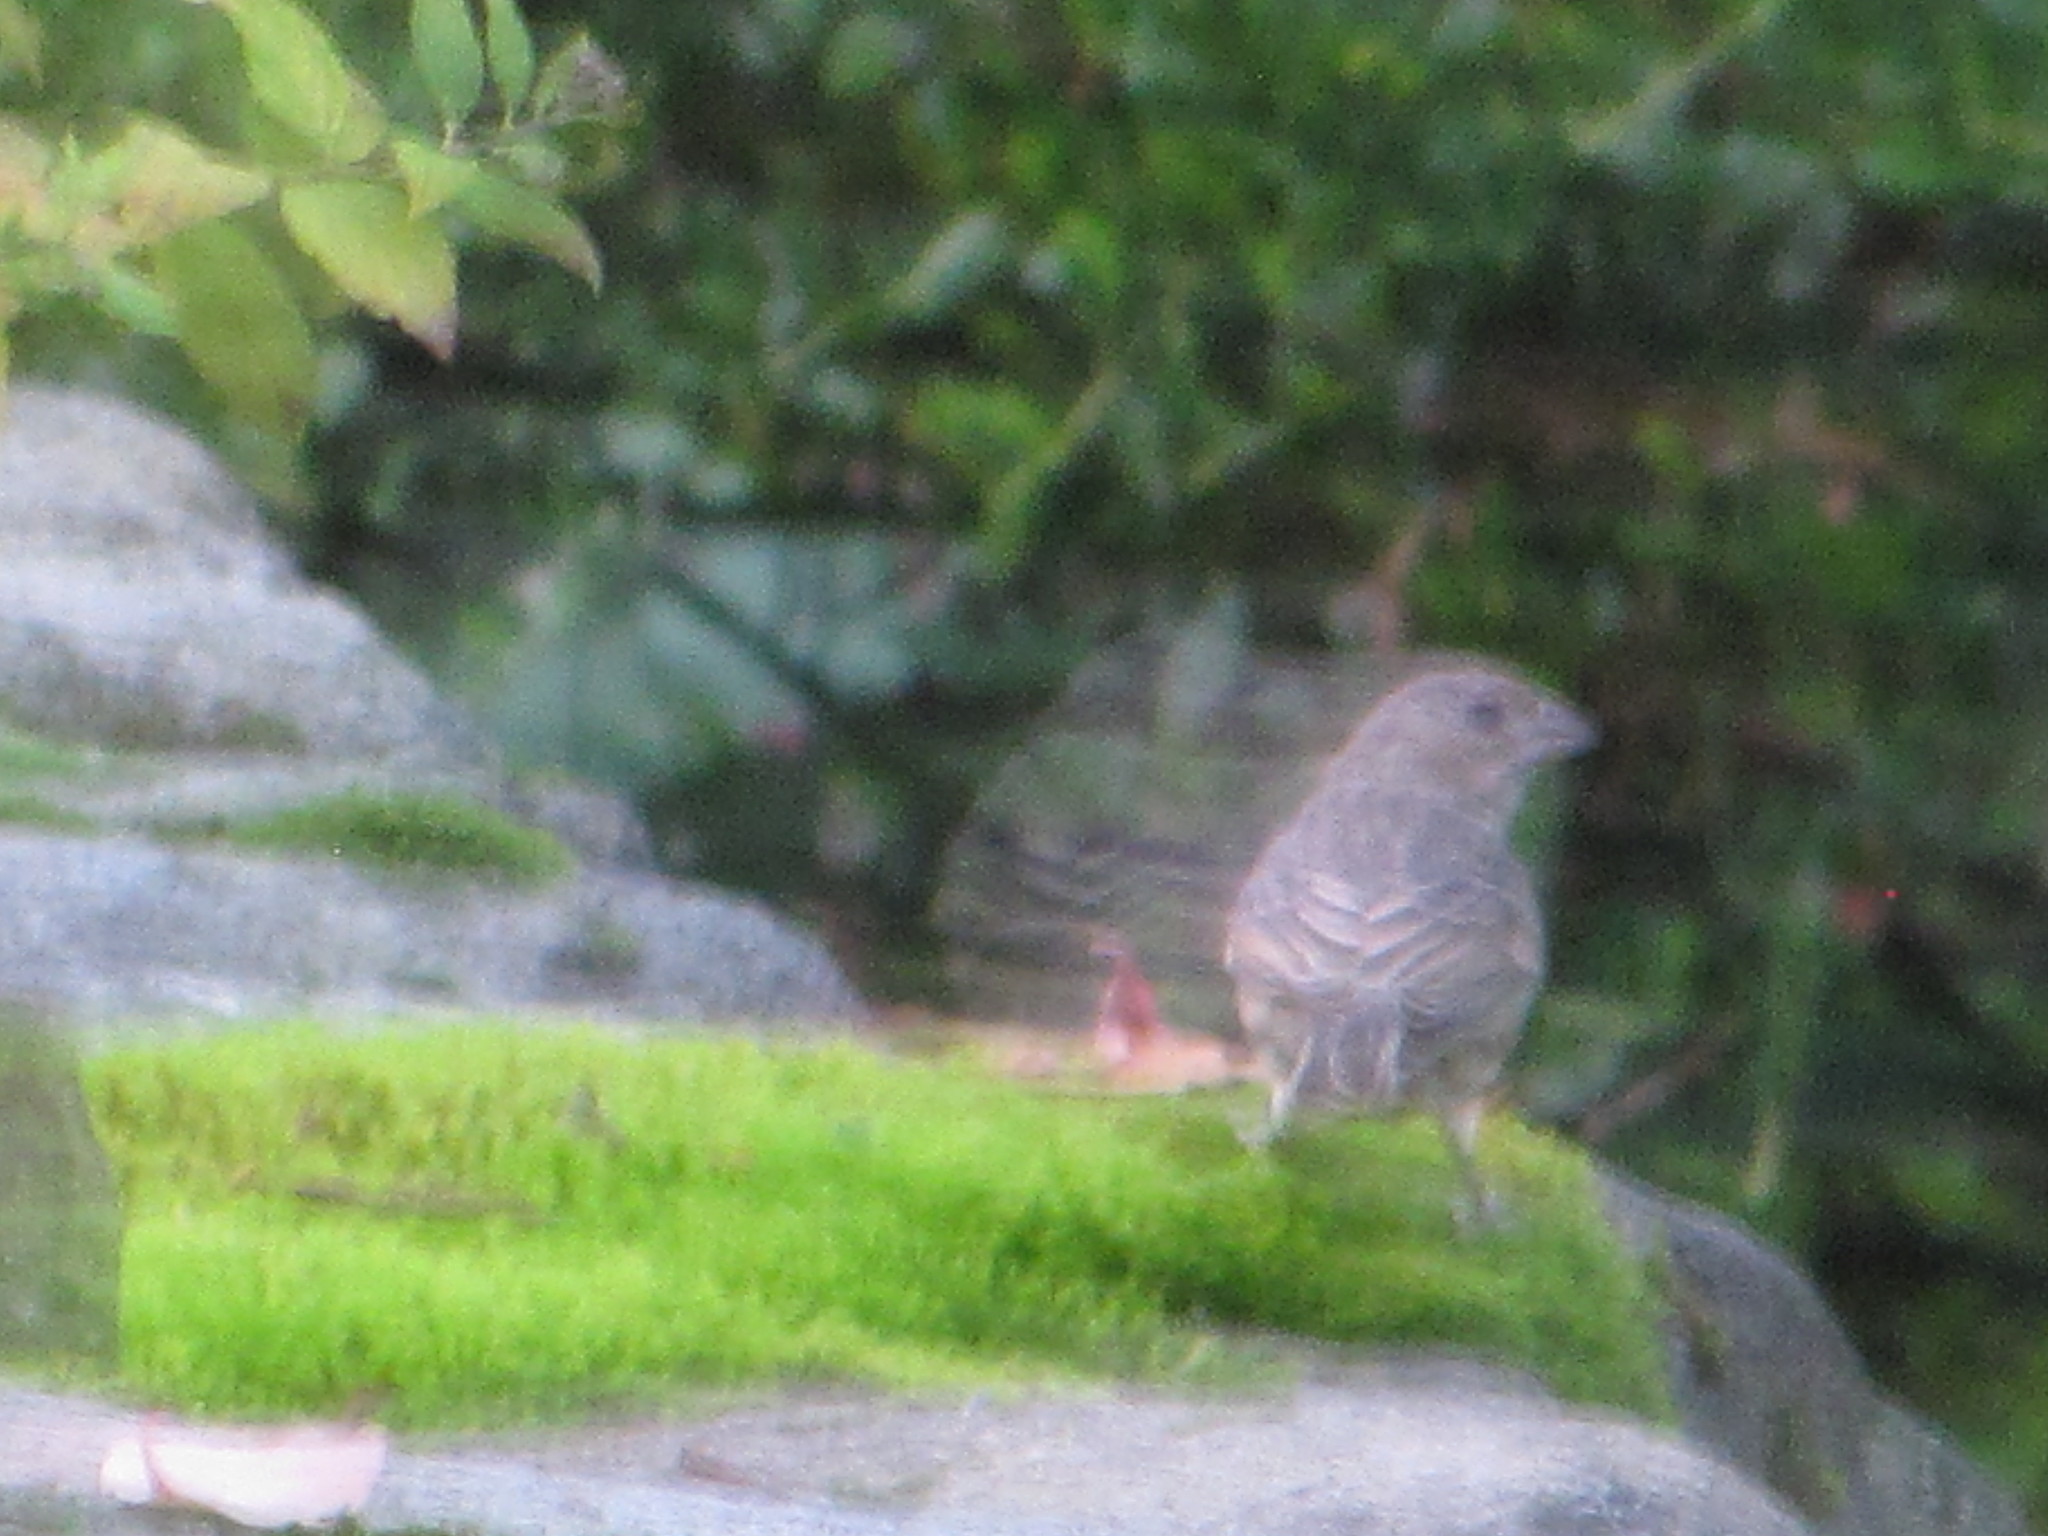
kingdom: Animalia
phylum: Chordata
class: Aves
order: Passeriformes
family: Fringillidae
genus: Haemorhous
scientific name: Haemorhous mexicanus
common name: House finch
